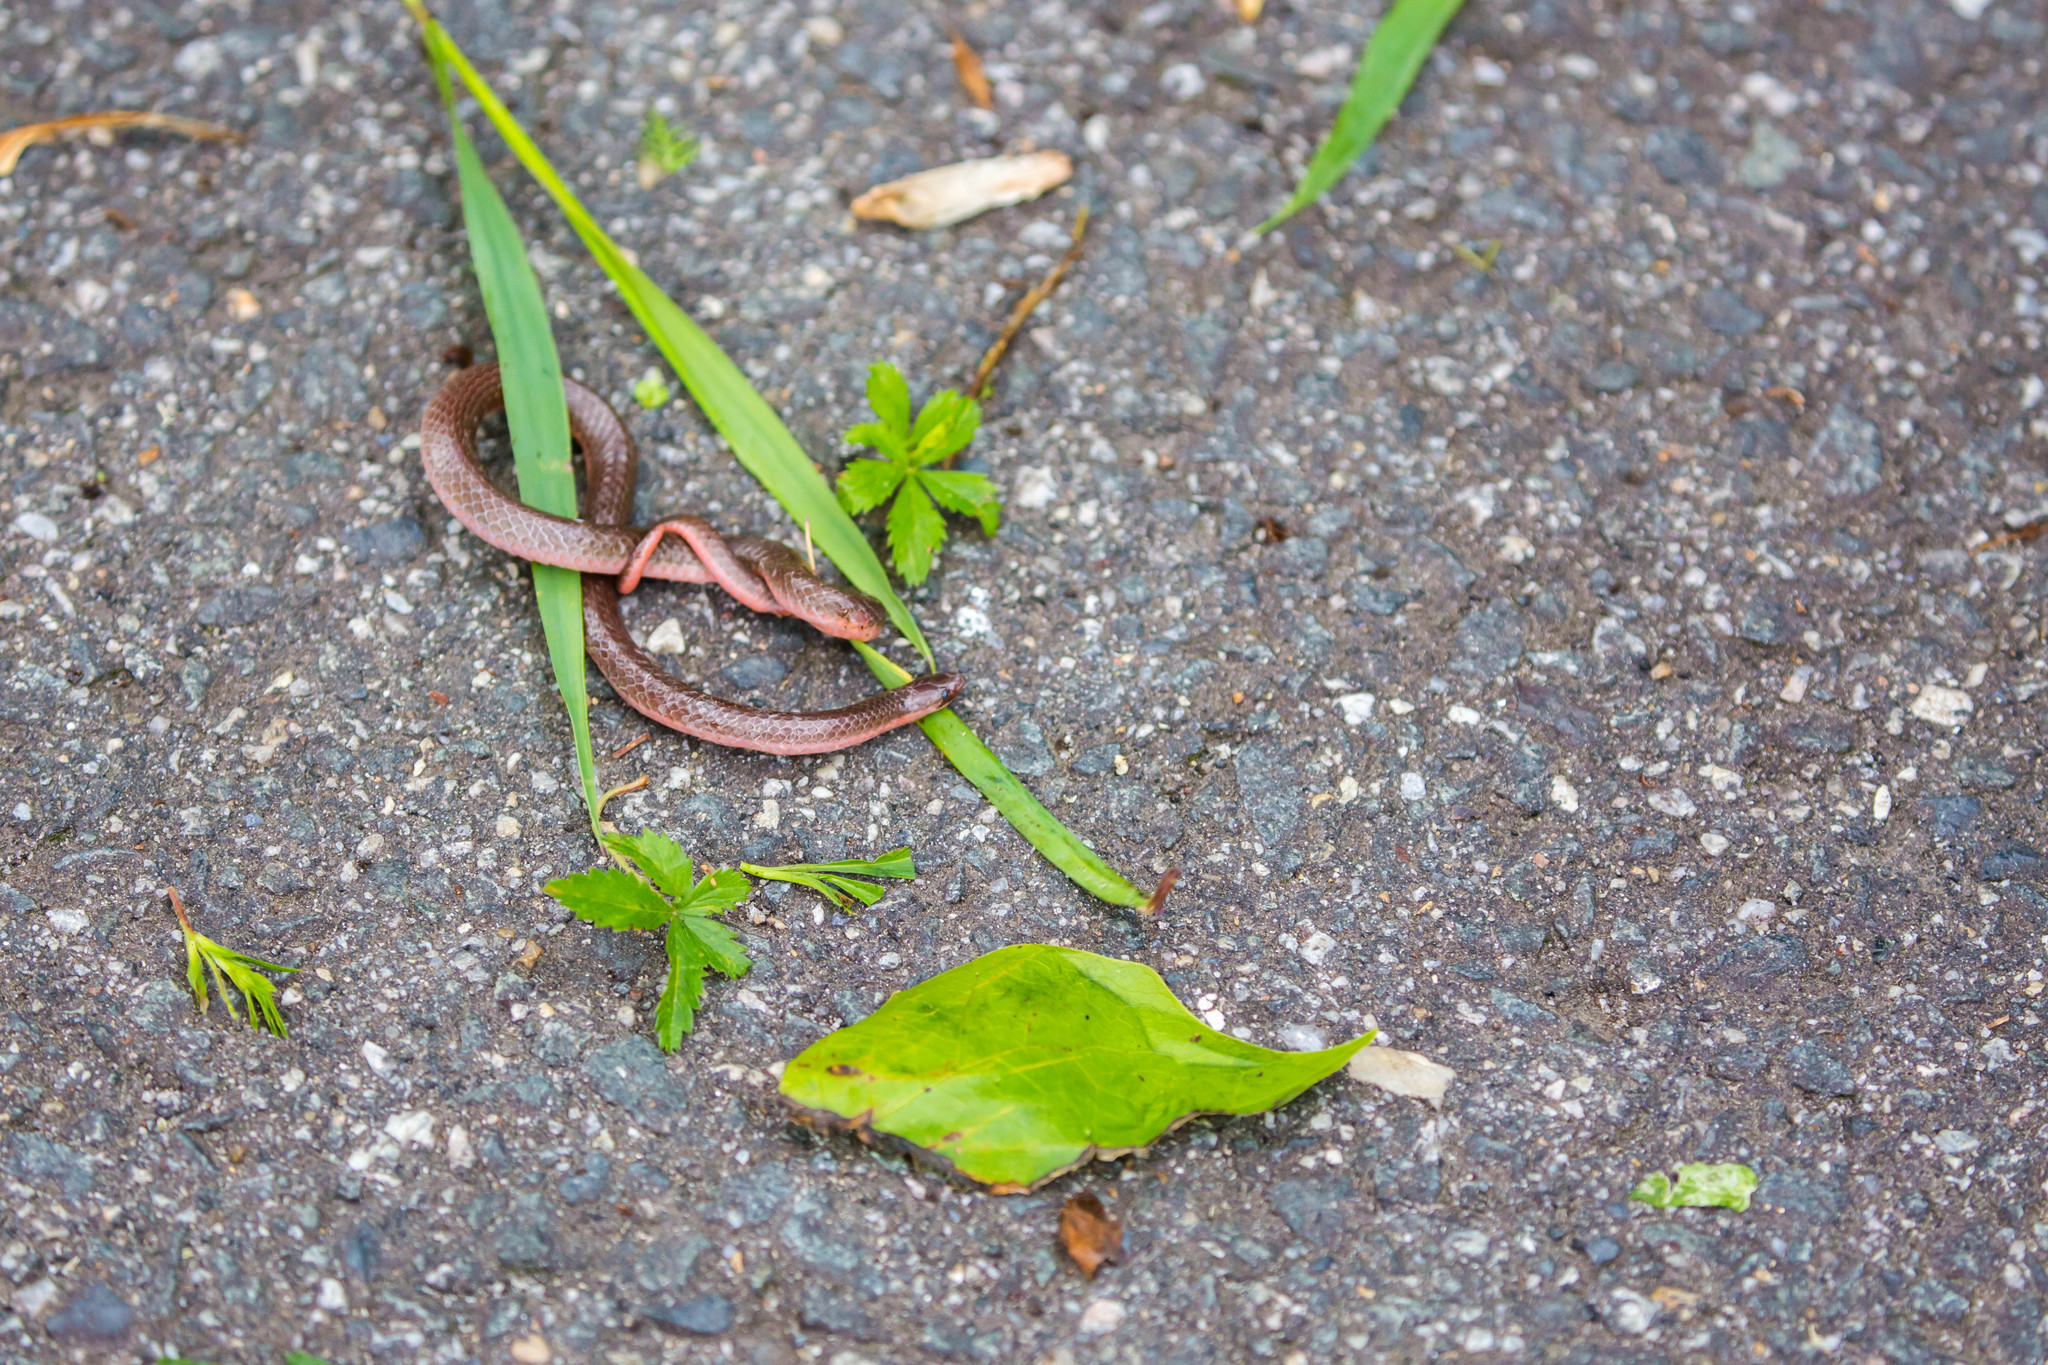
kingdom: Animalia
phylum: Chordata
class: Squamata
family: Colubridae
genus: Carphophis
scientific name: Carphophis amoenus
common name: Eastern worm snake
